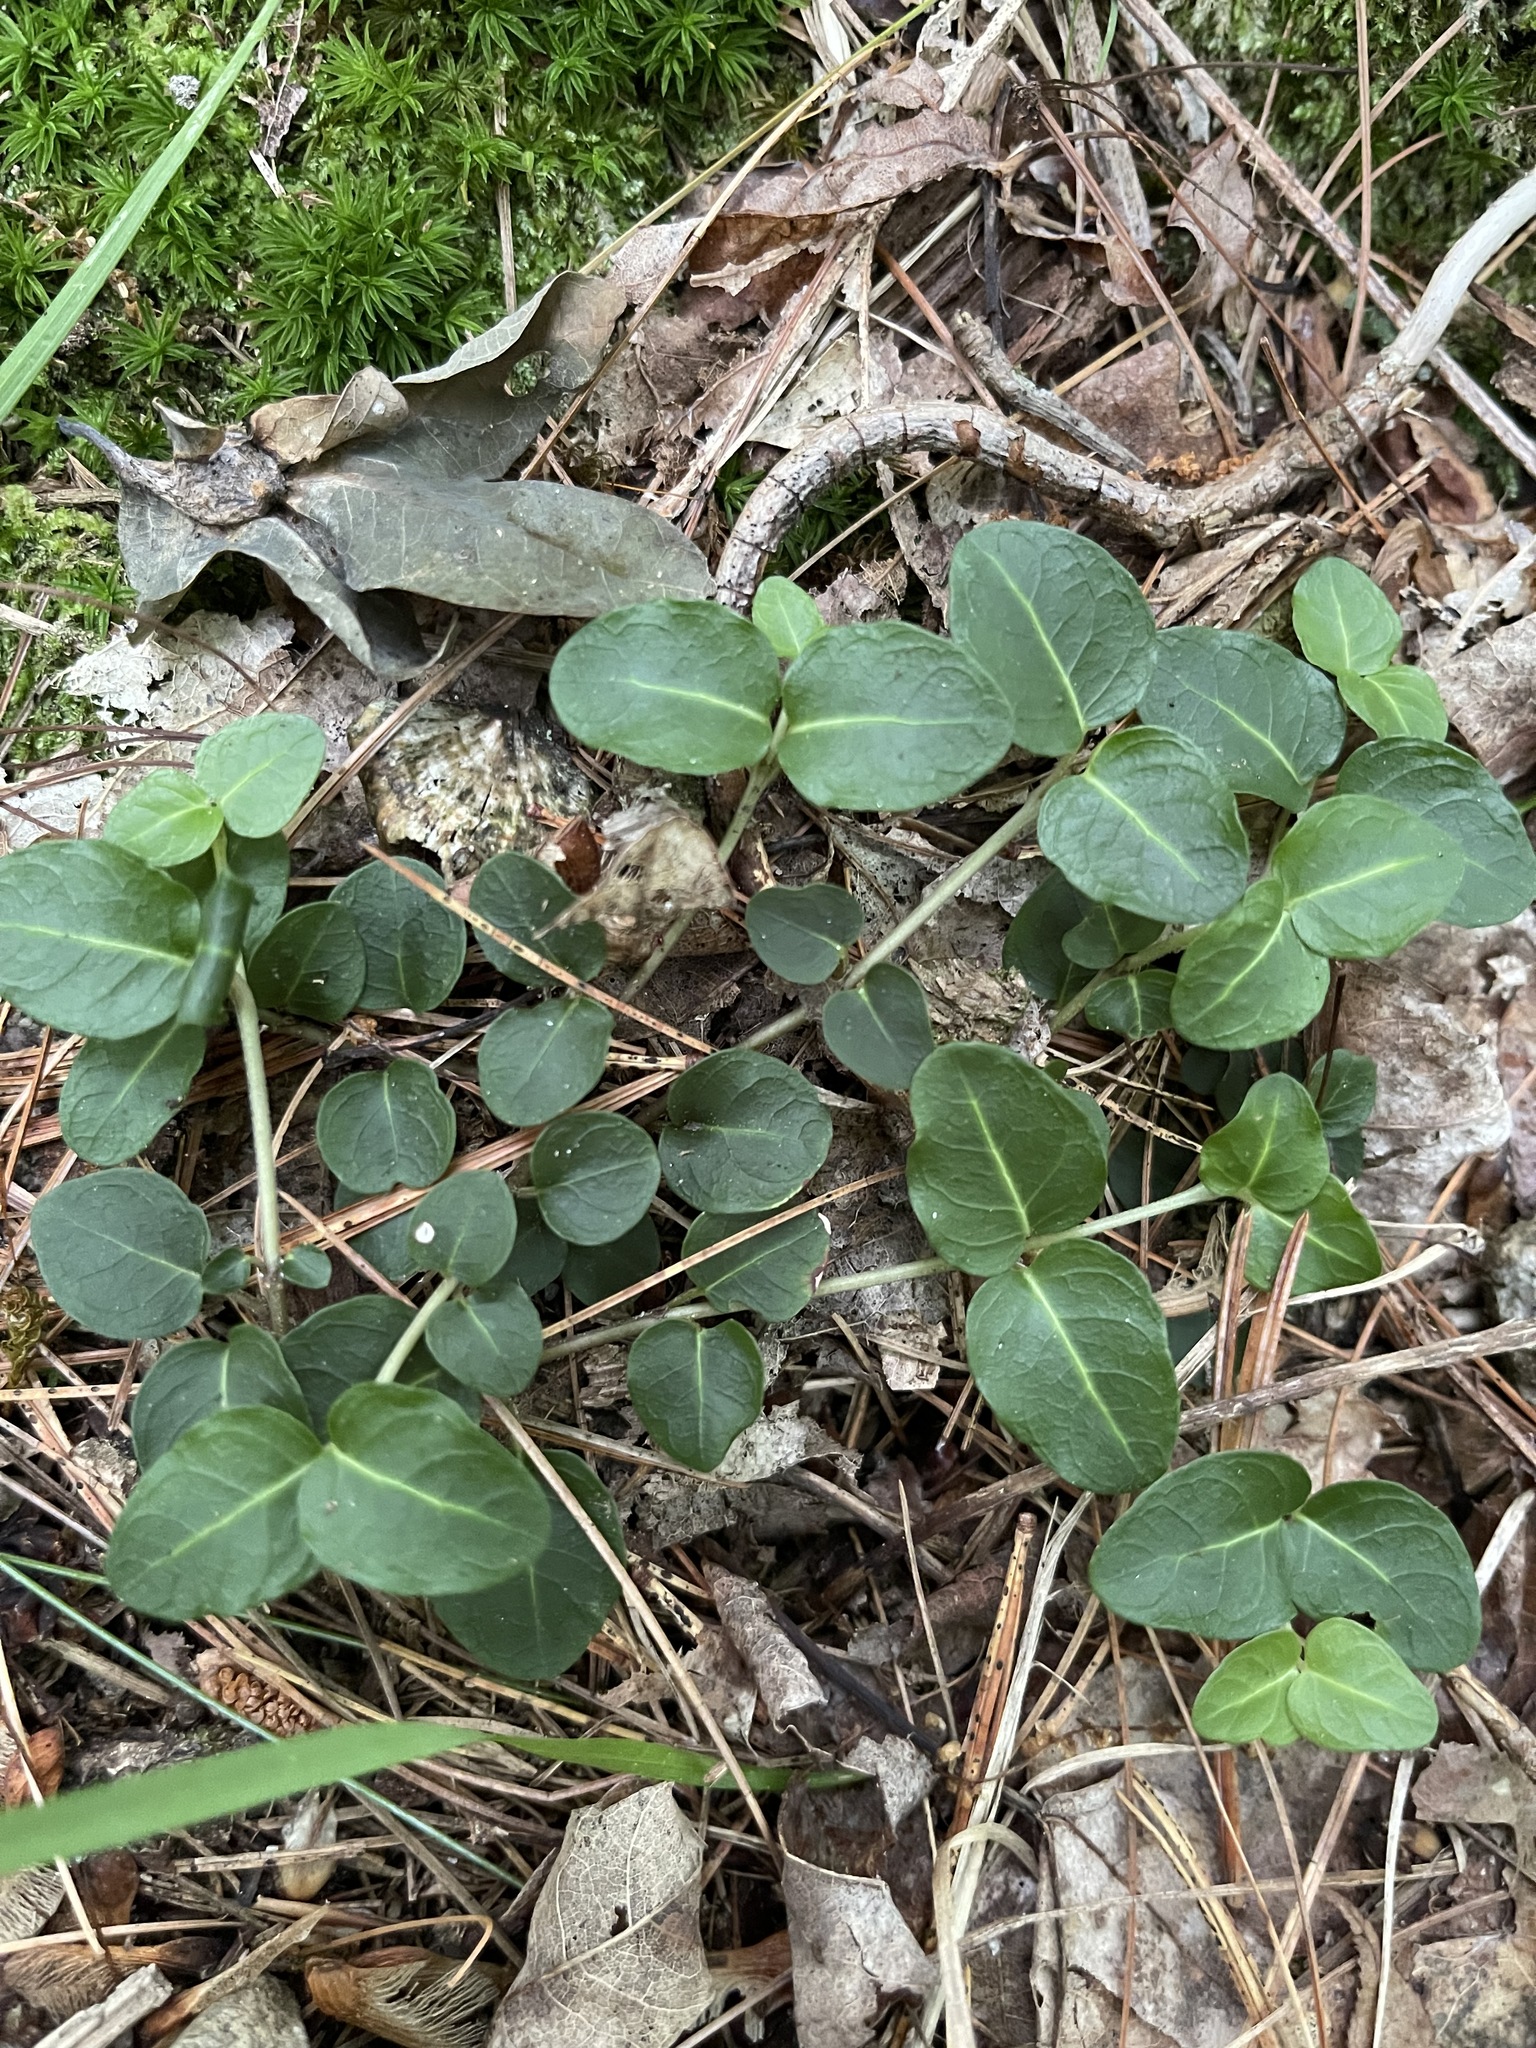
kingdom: Plantae
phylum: Tracheophyta
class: Magnoliopsida
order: Gentianales
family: Rubiaceae
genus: Mitchella
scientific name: Mitchella repens
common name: Partridge-berry
